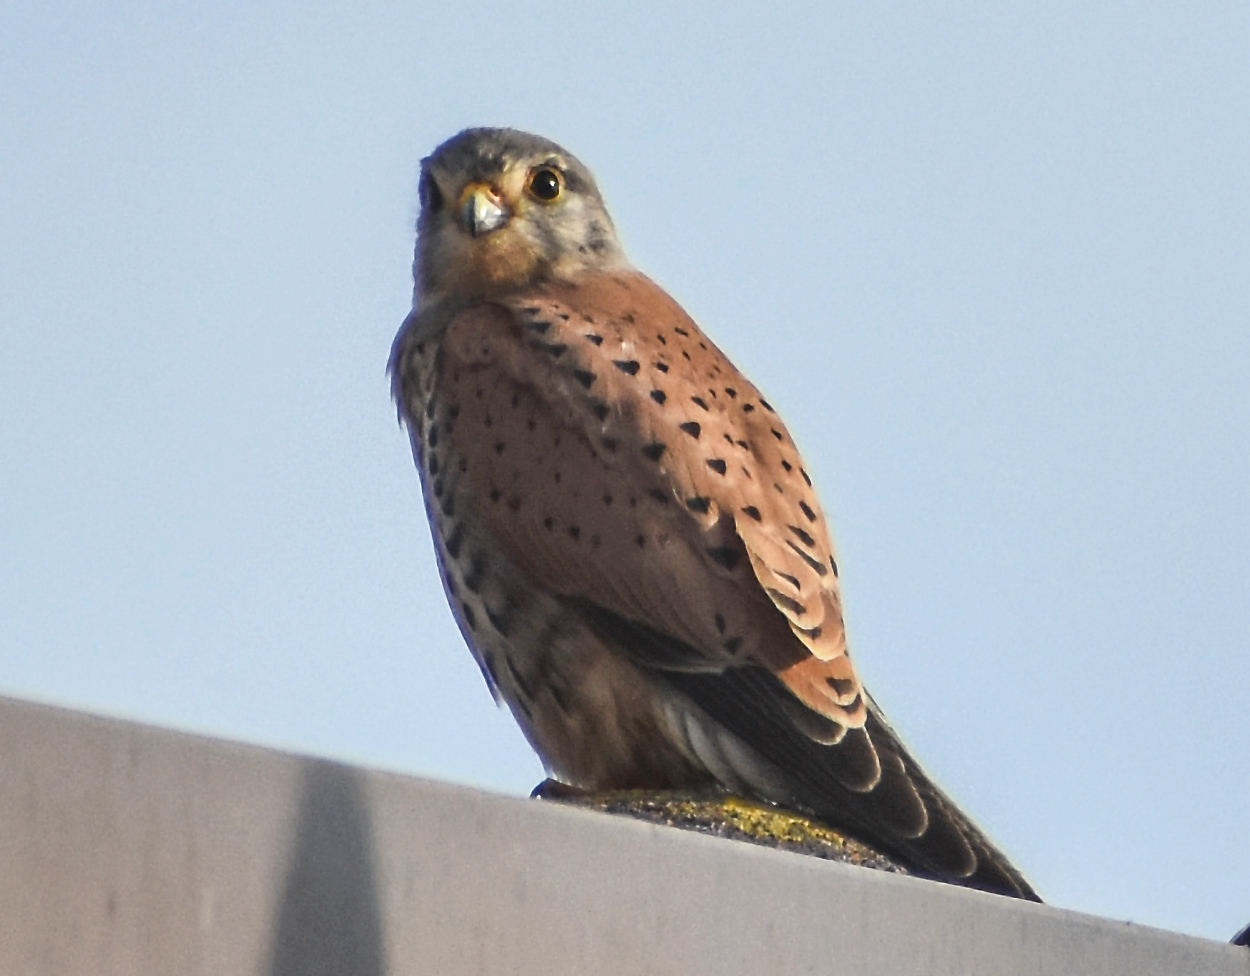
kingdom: Animalia
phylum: Chordata
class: Aves
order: Falconiformes
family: Falconidae
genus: Falco
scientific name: Falco tinnunculus
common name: Common kestrel
